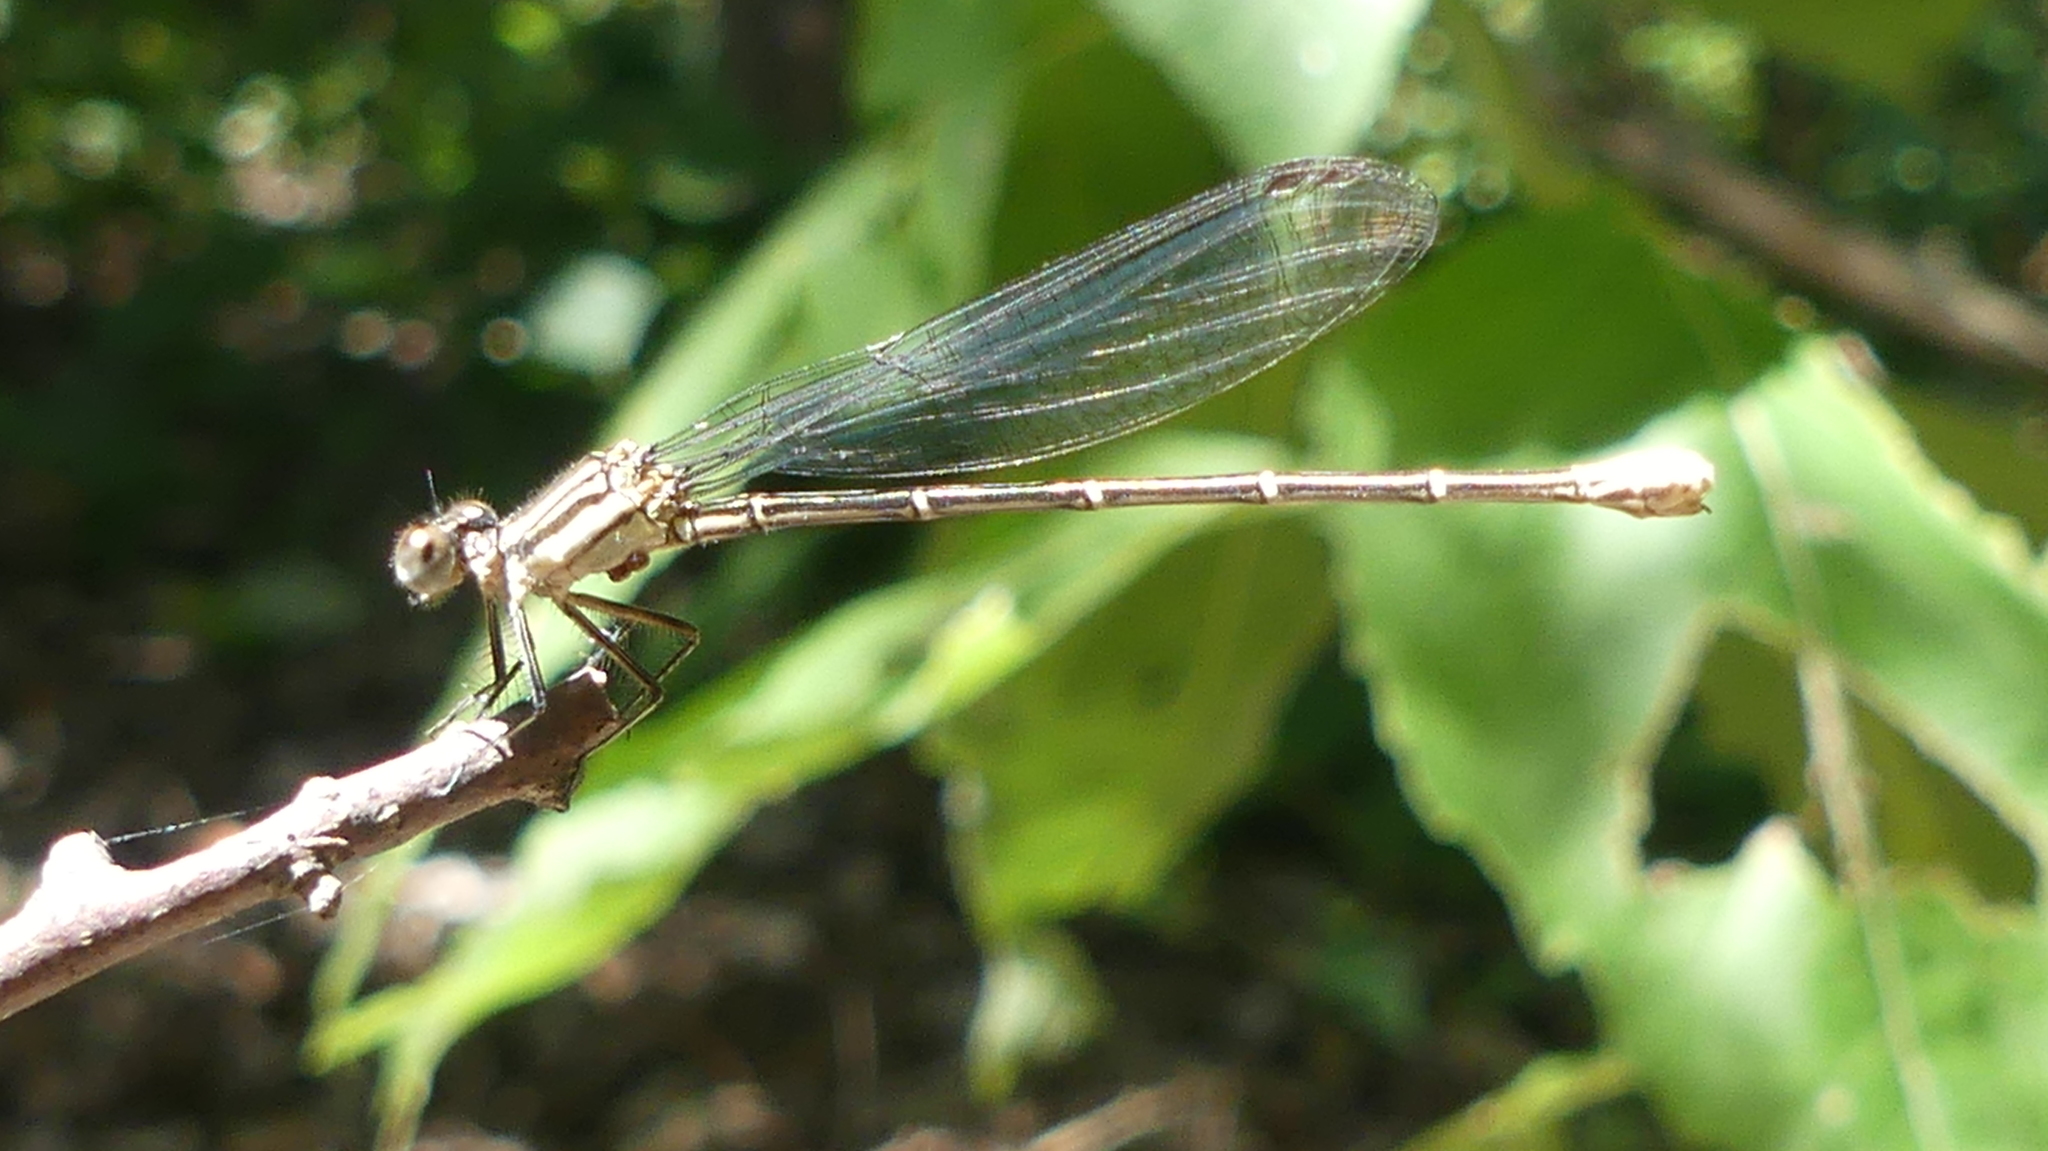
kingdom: Animalia
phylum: Arthropoda
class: Insecta
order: Odonata
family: Coenagrionidae
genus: Argia
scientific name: Argia translata
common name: Dusky dancer
